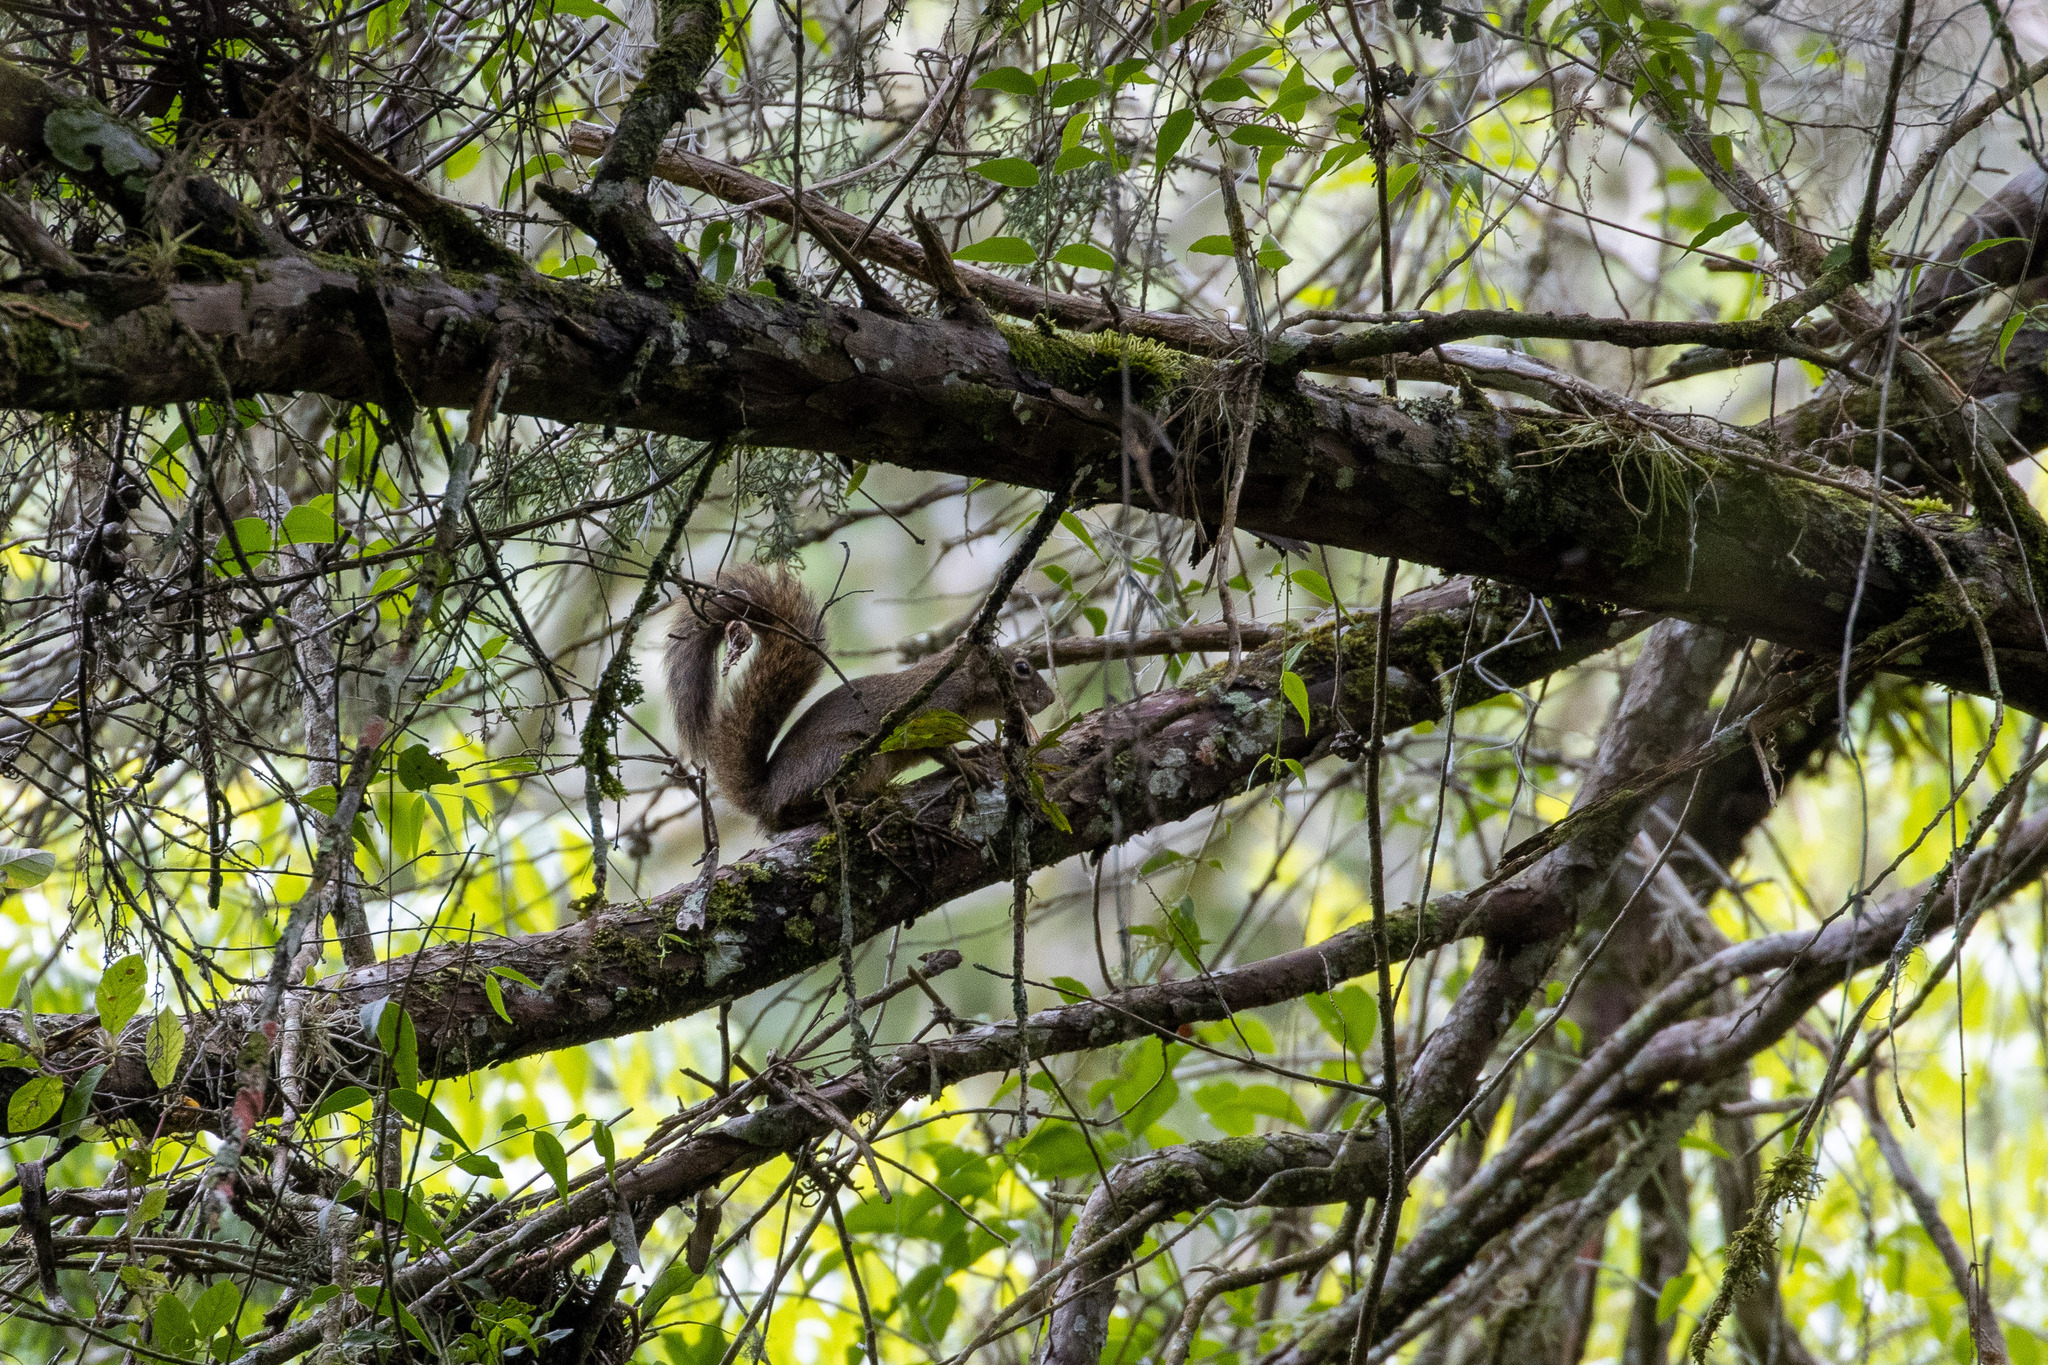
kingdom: Animalia
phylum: Chordata
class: Mammalia
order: Rodentia
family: Sciuridae
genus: Sciurus
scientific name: Sciurus aestuans
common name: Guianan squirrel
